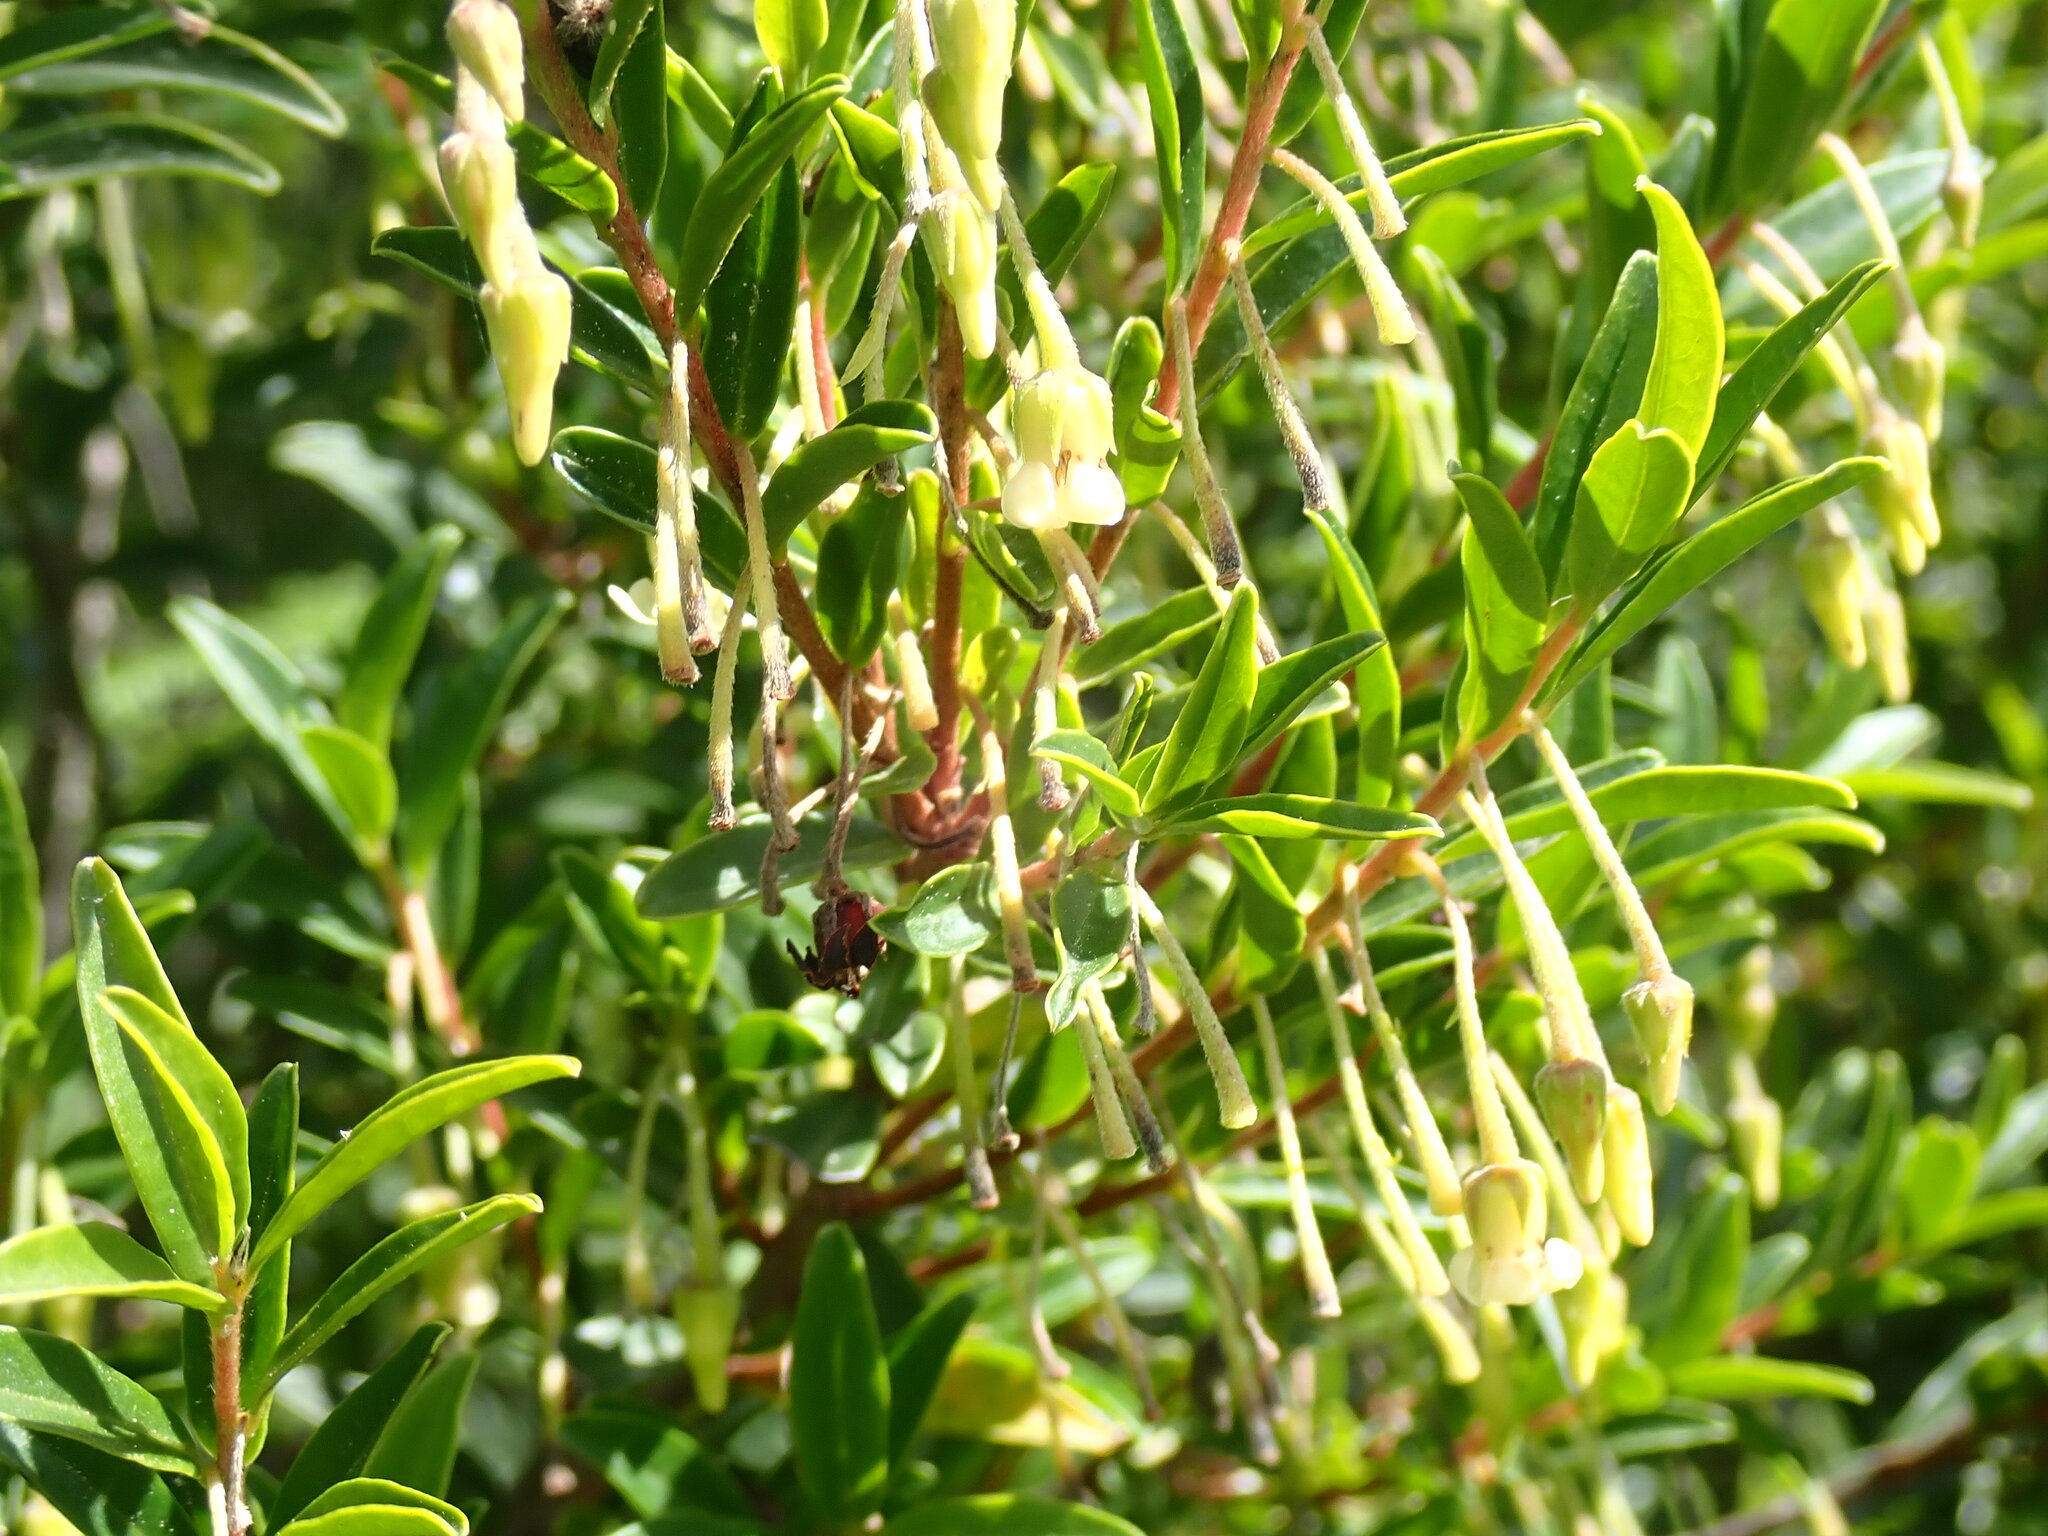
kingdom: Plantae
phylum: Tracheophyta
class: Magnoliopsida
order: Ericales
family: Ebenaceae
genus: Diospyros
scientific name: Diospyros glabra
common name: Fynbos star apple
